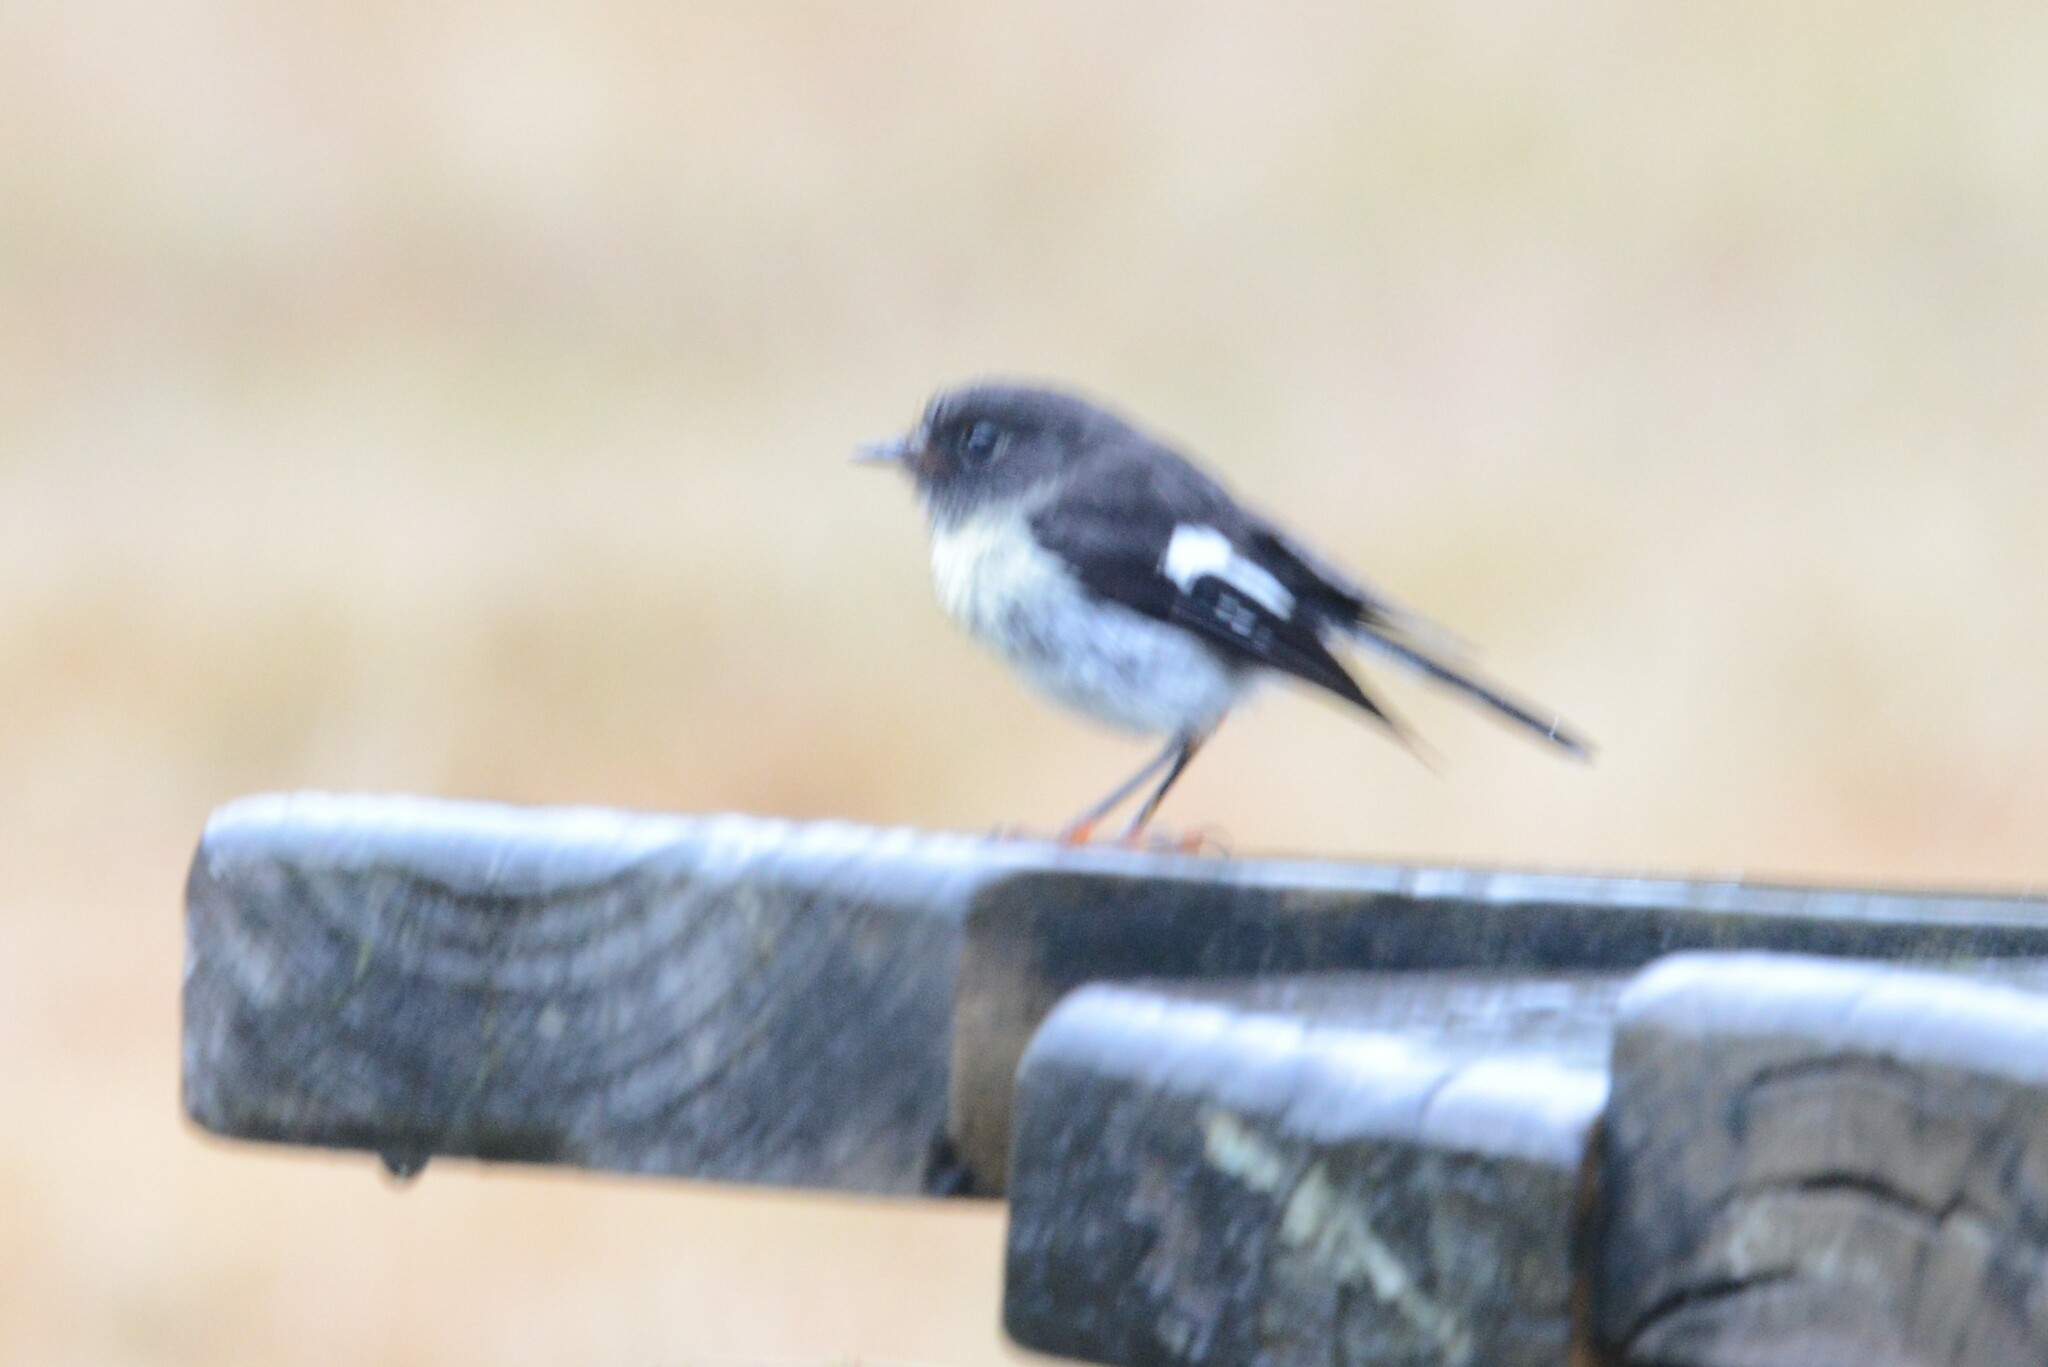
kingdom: Animalia
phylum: Chordata
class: Aves
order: Passeriformes
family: Petroicidae
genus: Petroica
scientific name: Petroica macrocephala
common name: Tomtit
